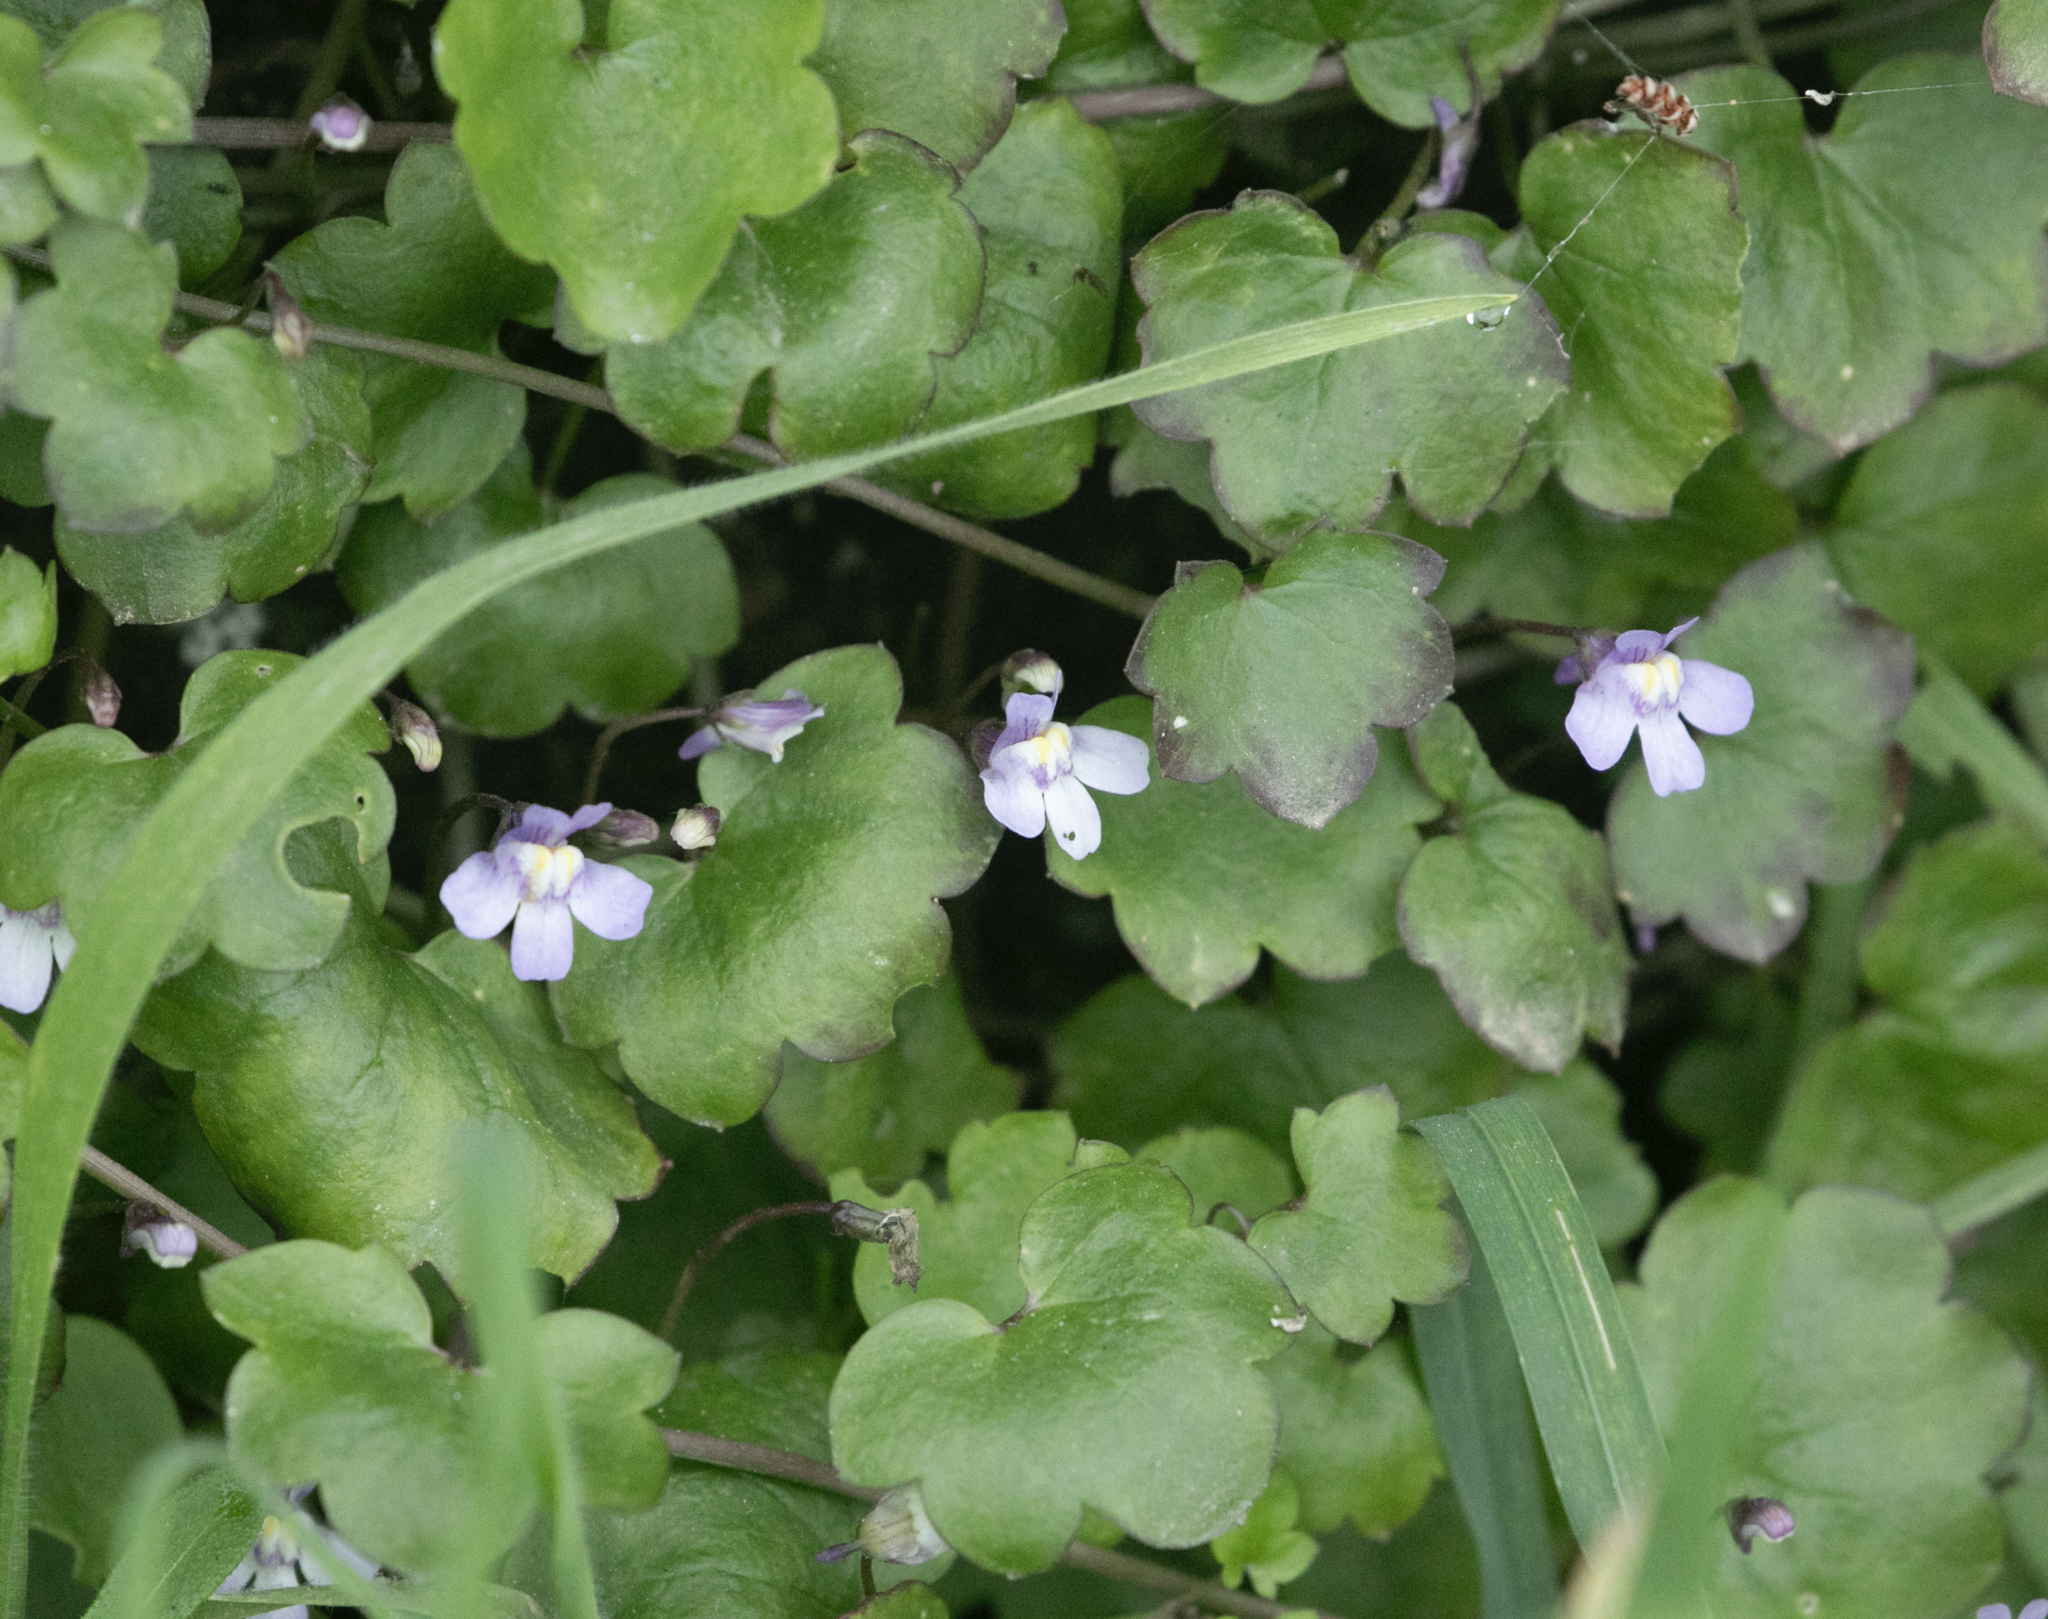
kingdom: Plantae
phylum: Tracheophyta
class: Magnoliopsida
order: Lamiales
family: Plantaginaceae
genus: Cymbalaria
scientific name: Cymbalaria muralis
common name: Ivy-leaved toadflax
